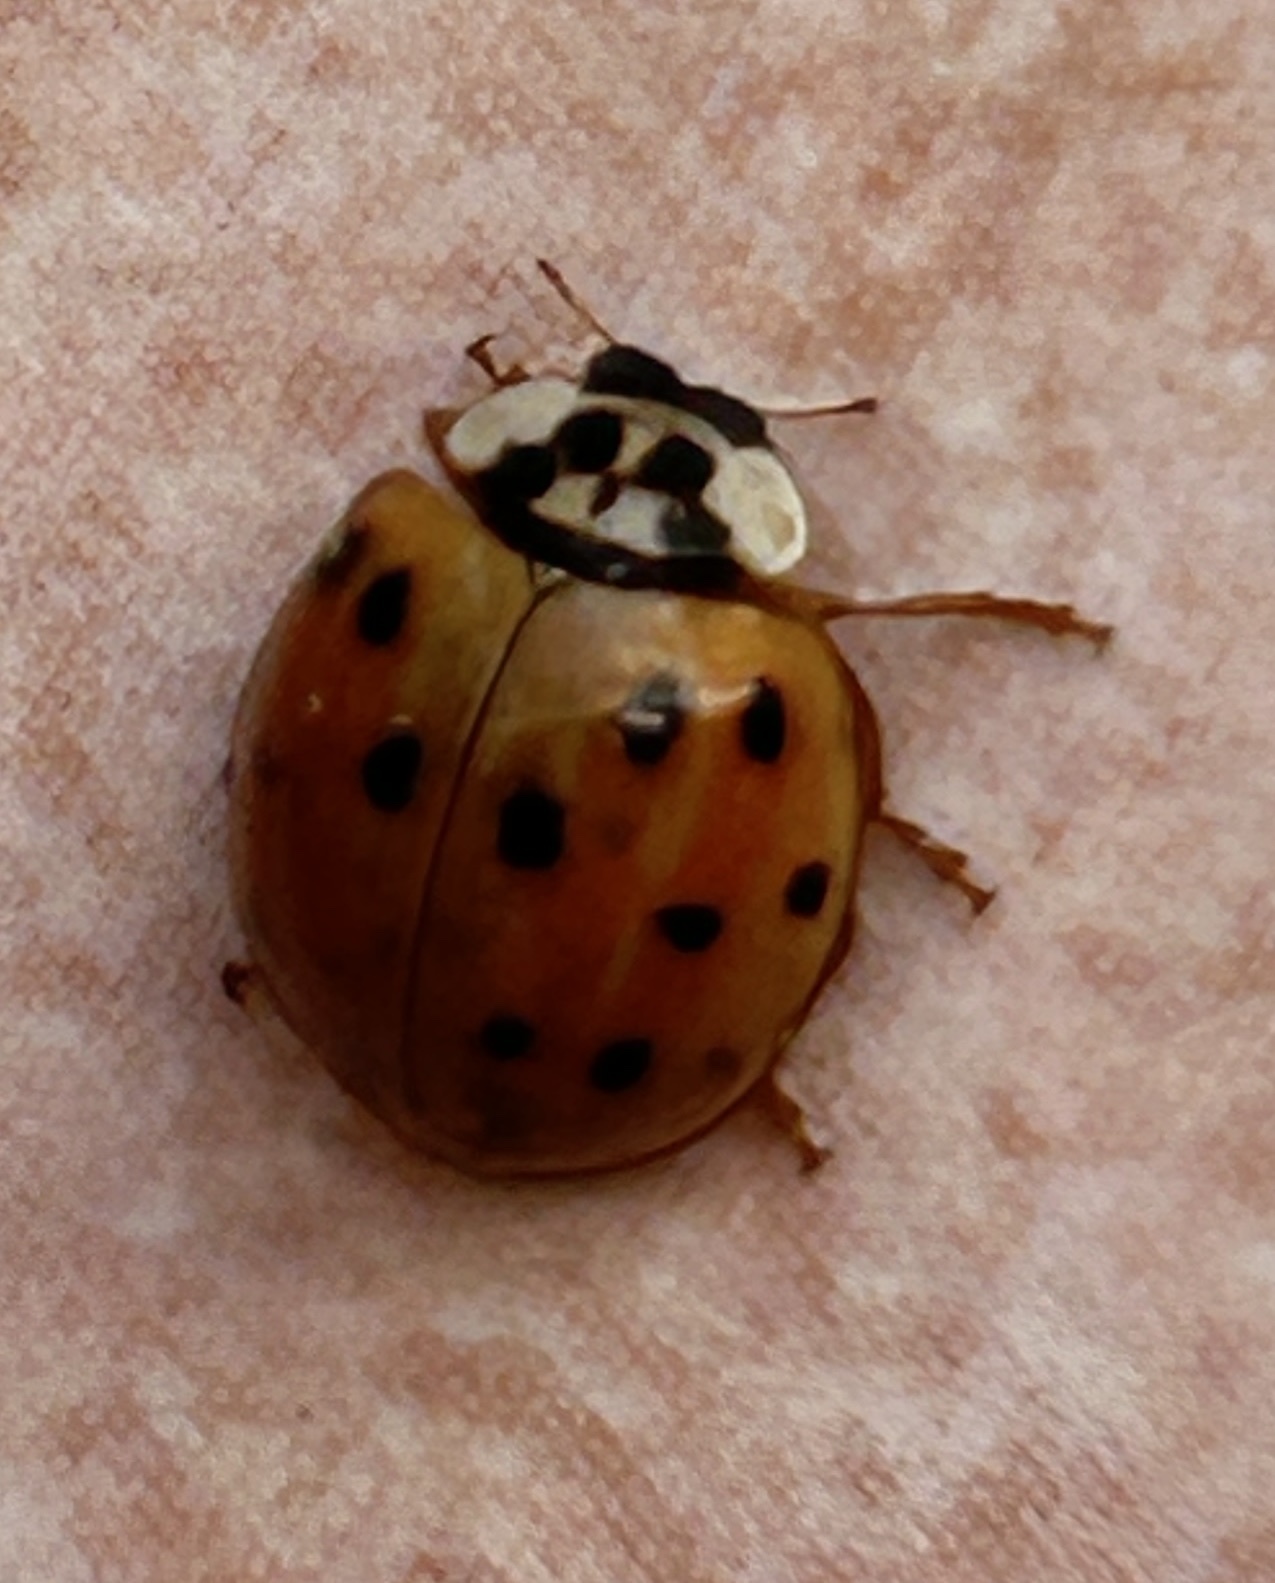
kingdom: Animalia
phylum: Arthropoda
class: Insecta
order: Coleoptera
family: Coccinellidae
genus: Harmonia
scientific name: Harmonia axyridis
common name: Harlequin ladybird
